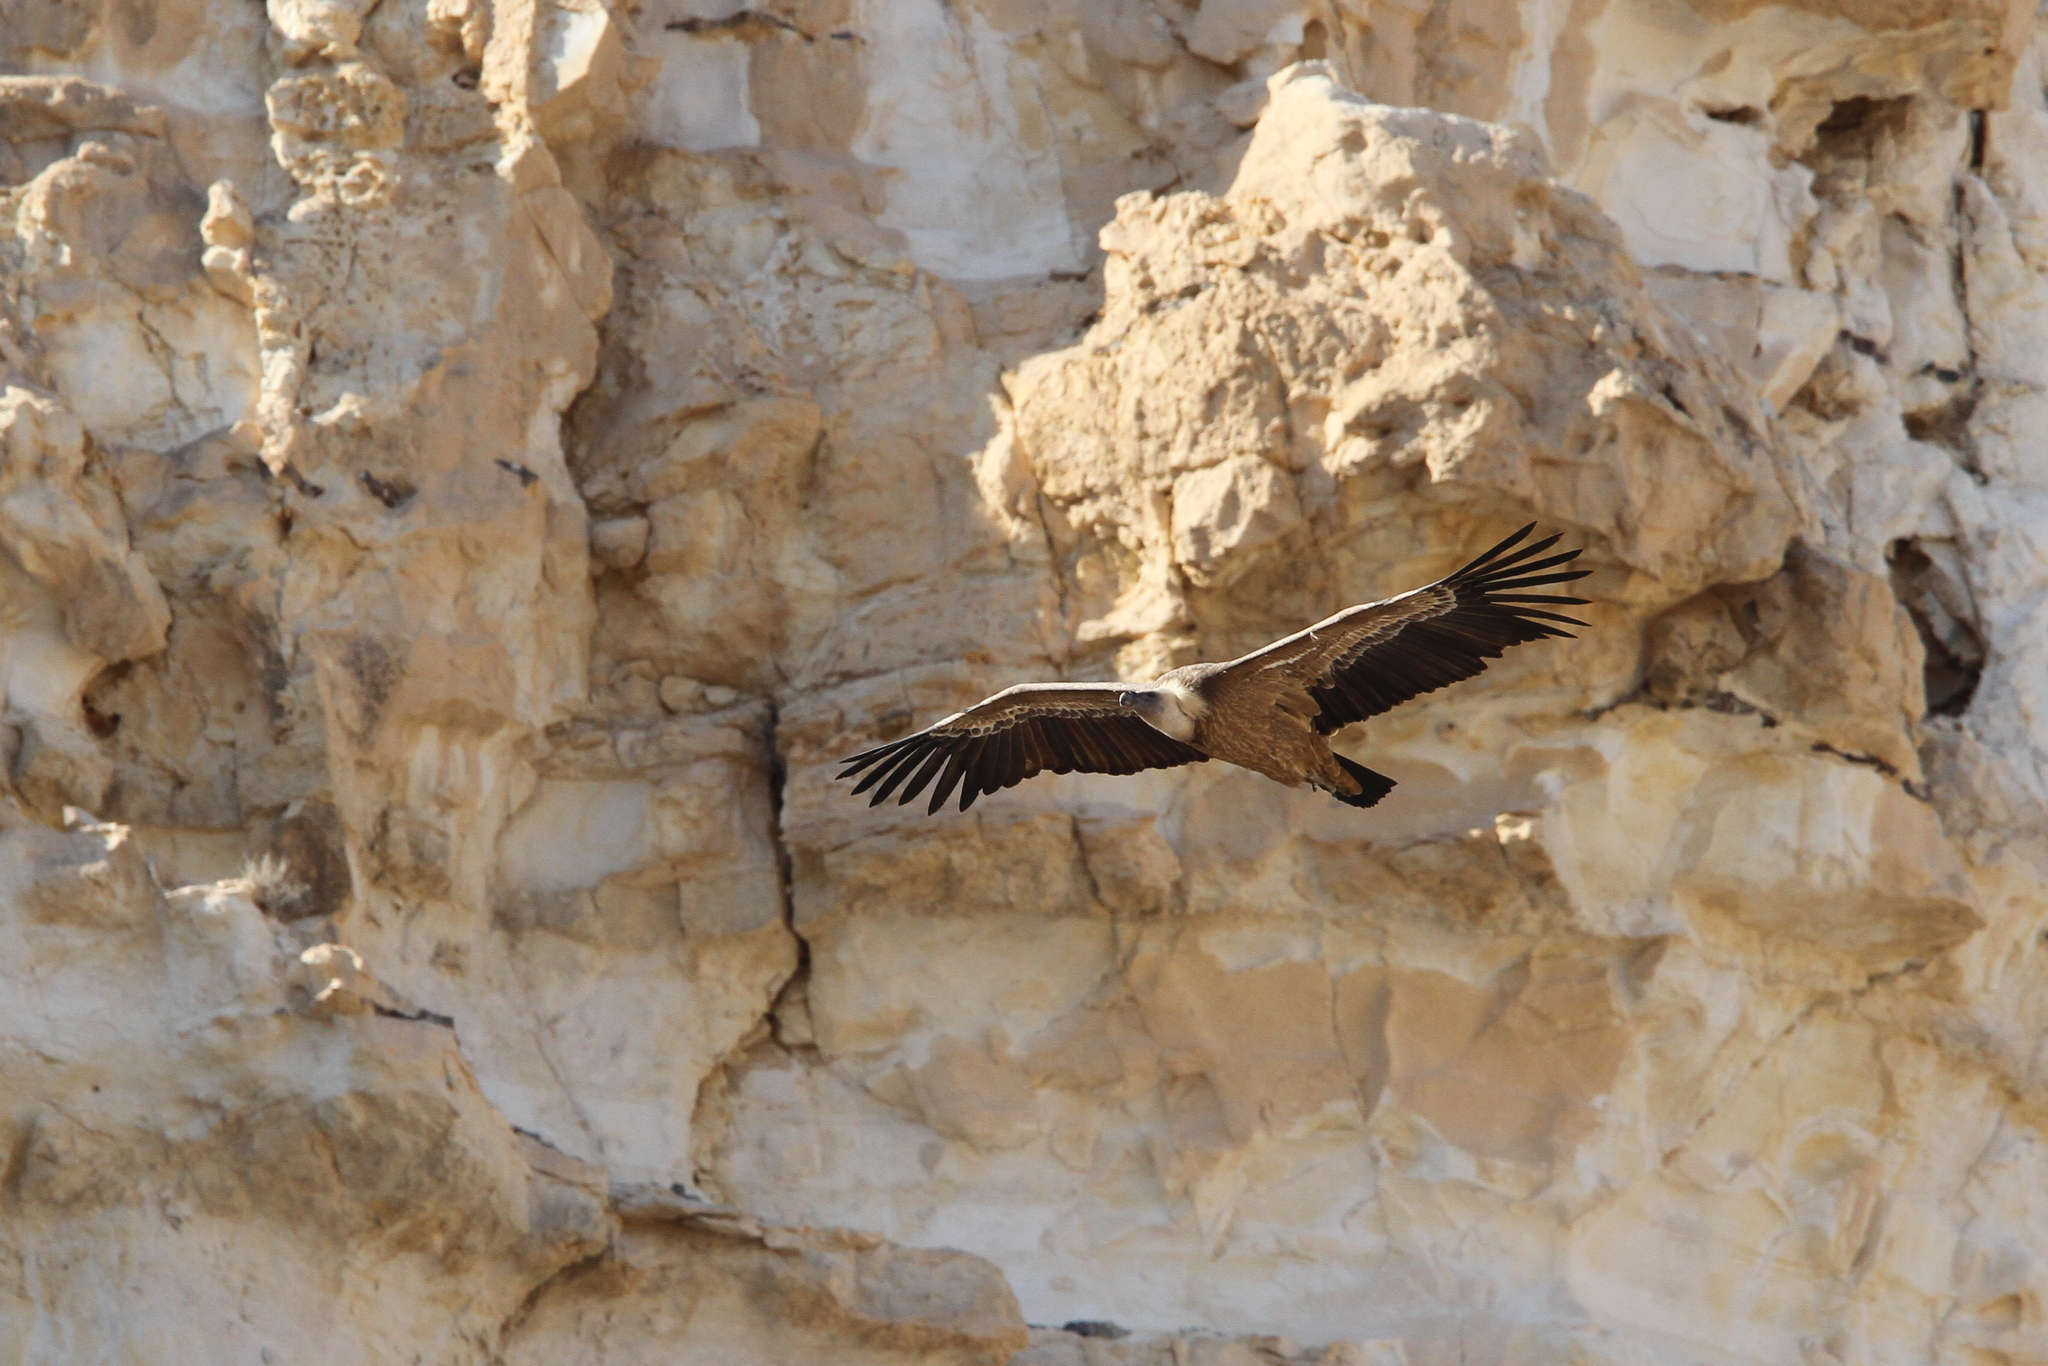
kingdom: Animalia
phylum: Chordata
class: Aves
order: Accipitriformes
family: Accipitridae
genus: Gyps
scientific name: Gyps fulvus
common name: Griffon vulture
